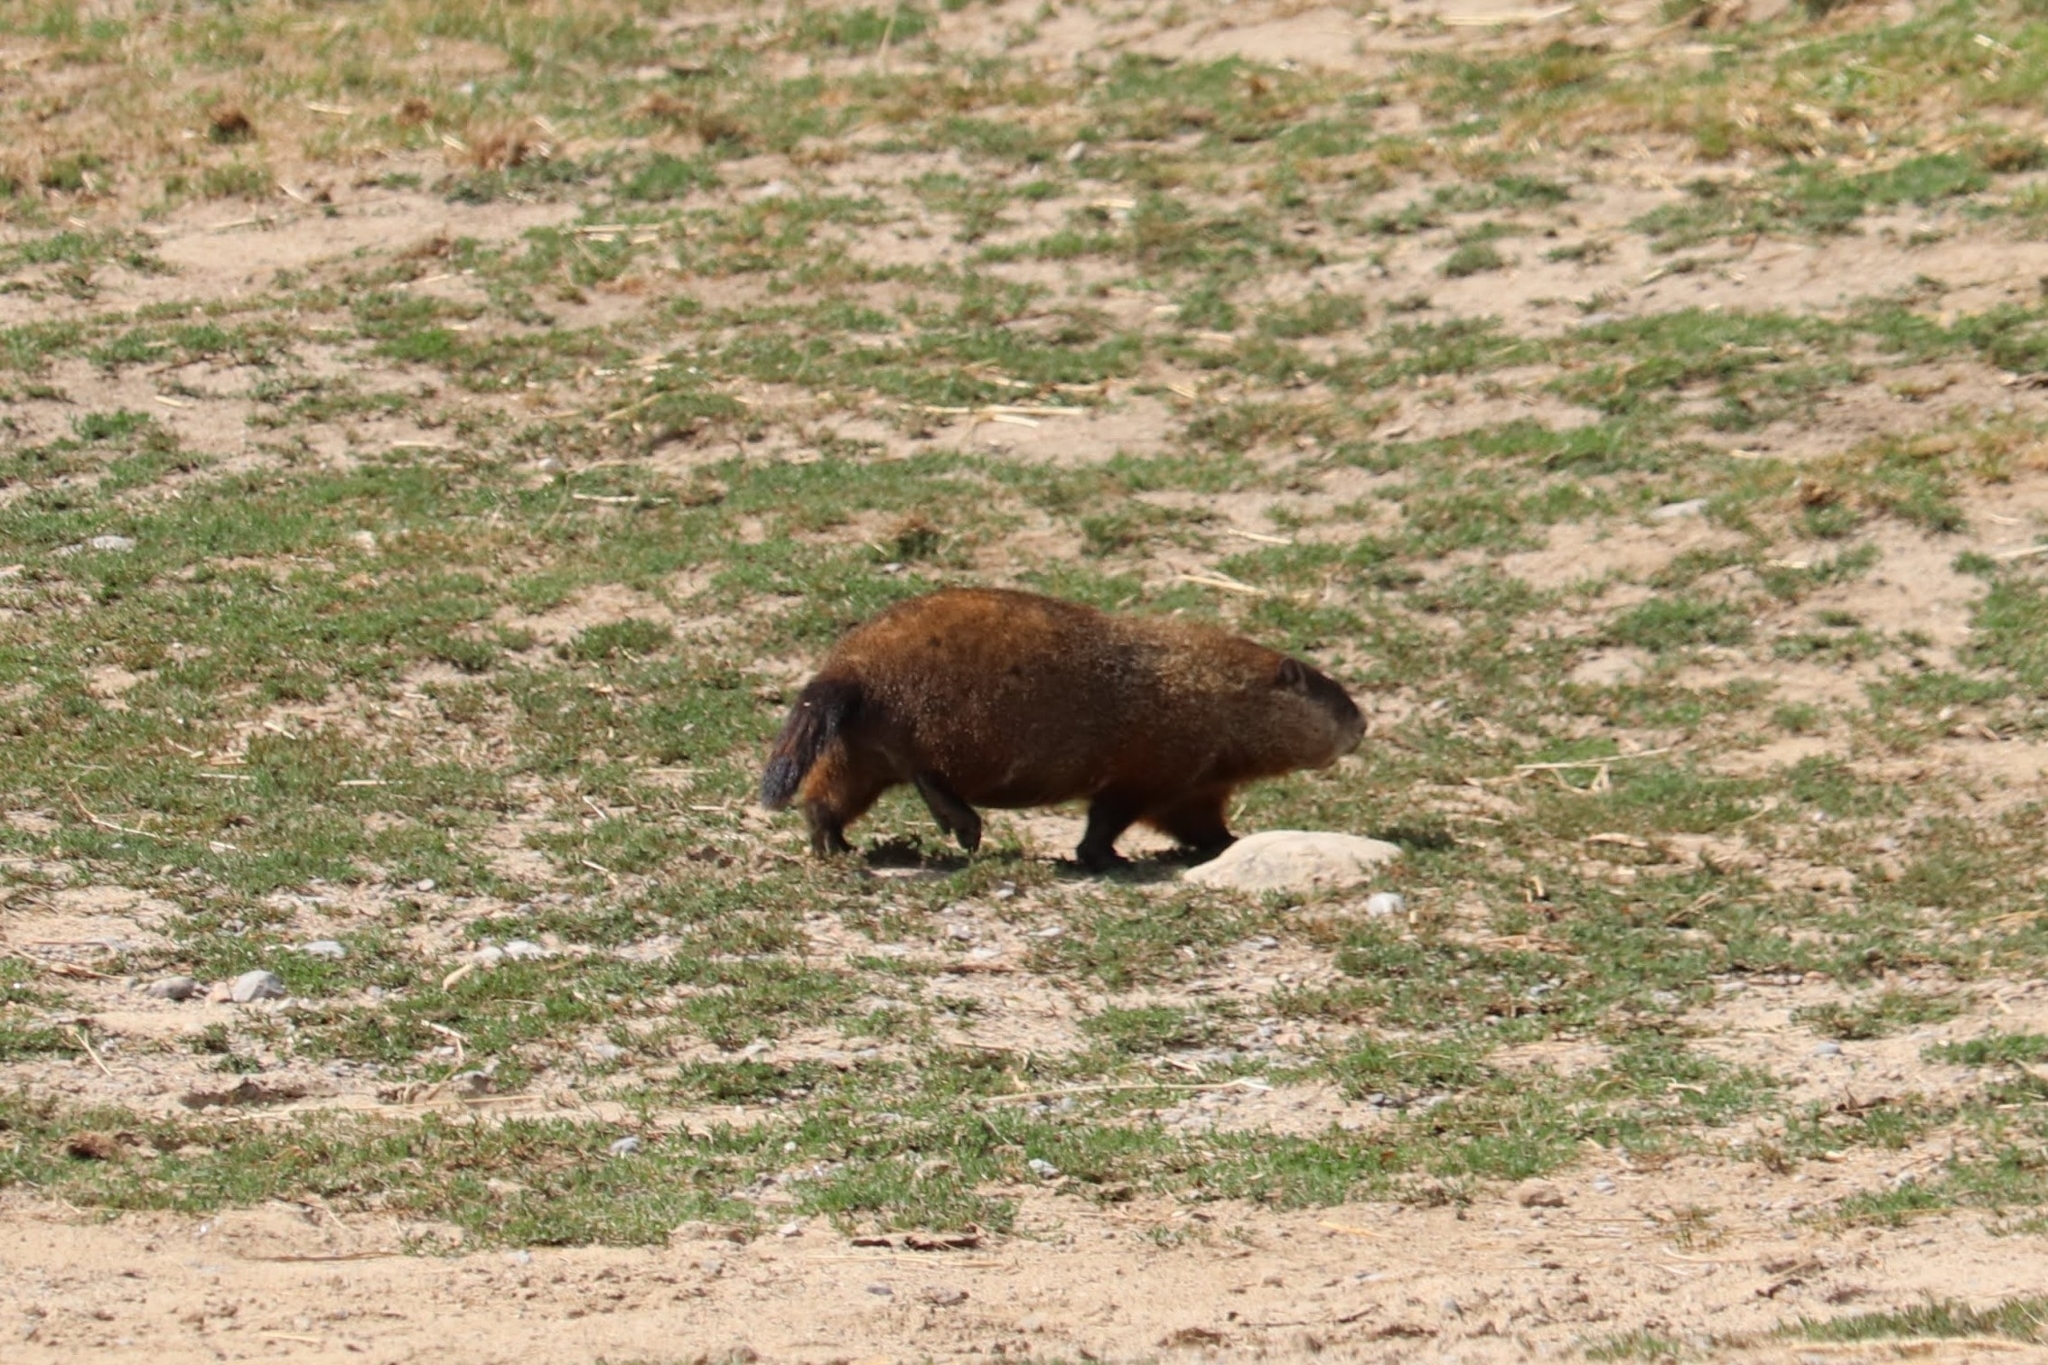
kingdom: Animalia
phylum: Chordata
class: Mammalia
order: Rodentia
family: Sciuridae
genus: Marmota
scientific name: Marmota monax
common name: Groundhog
